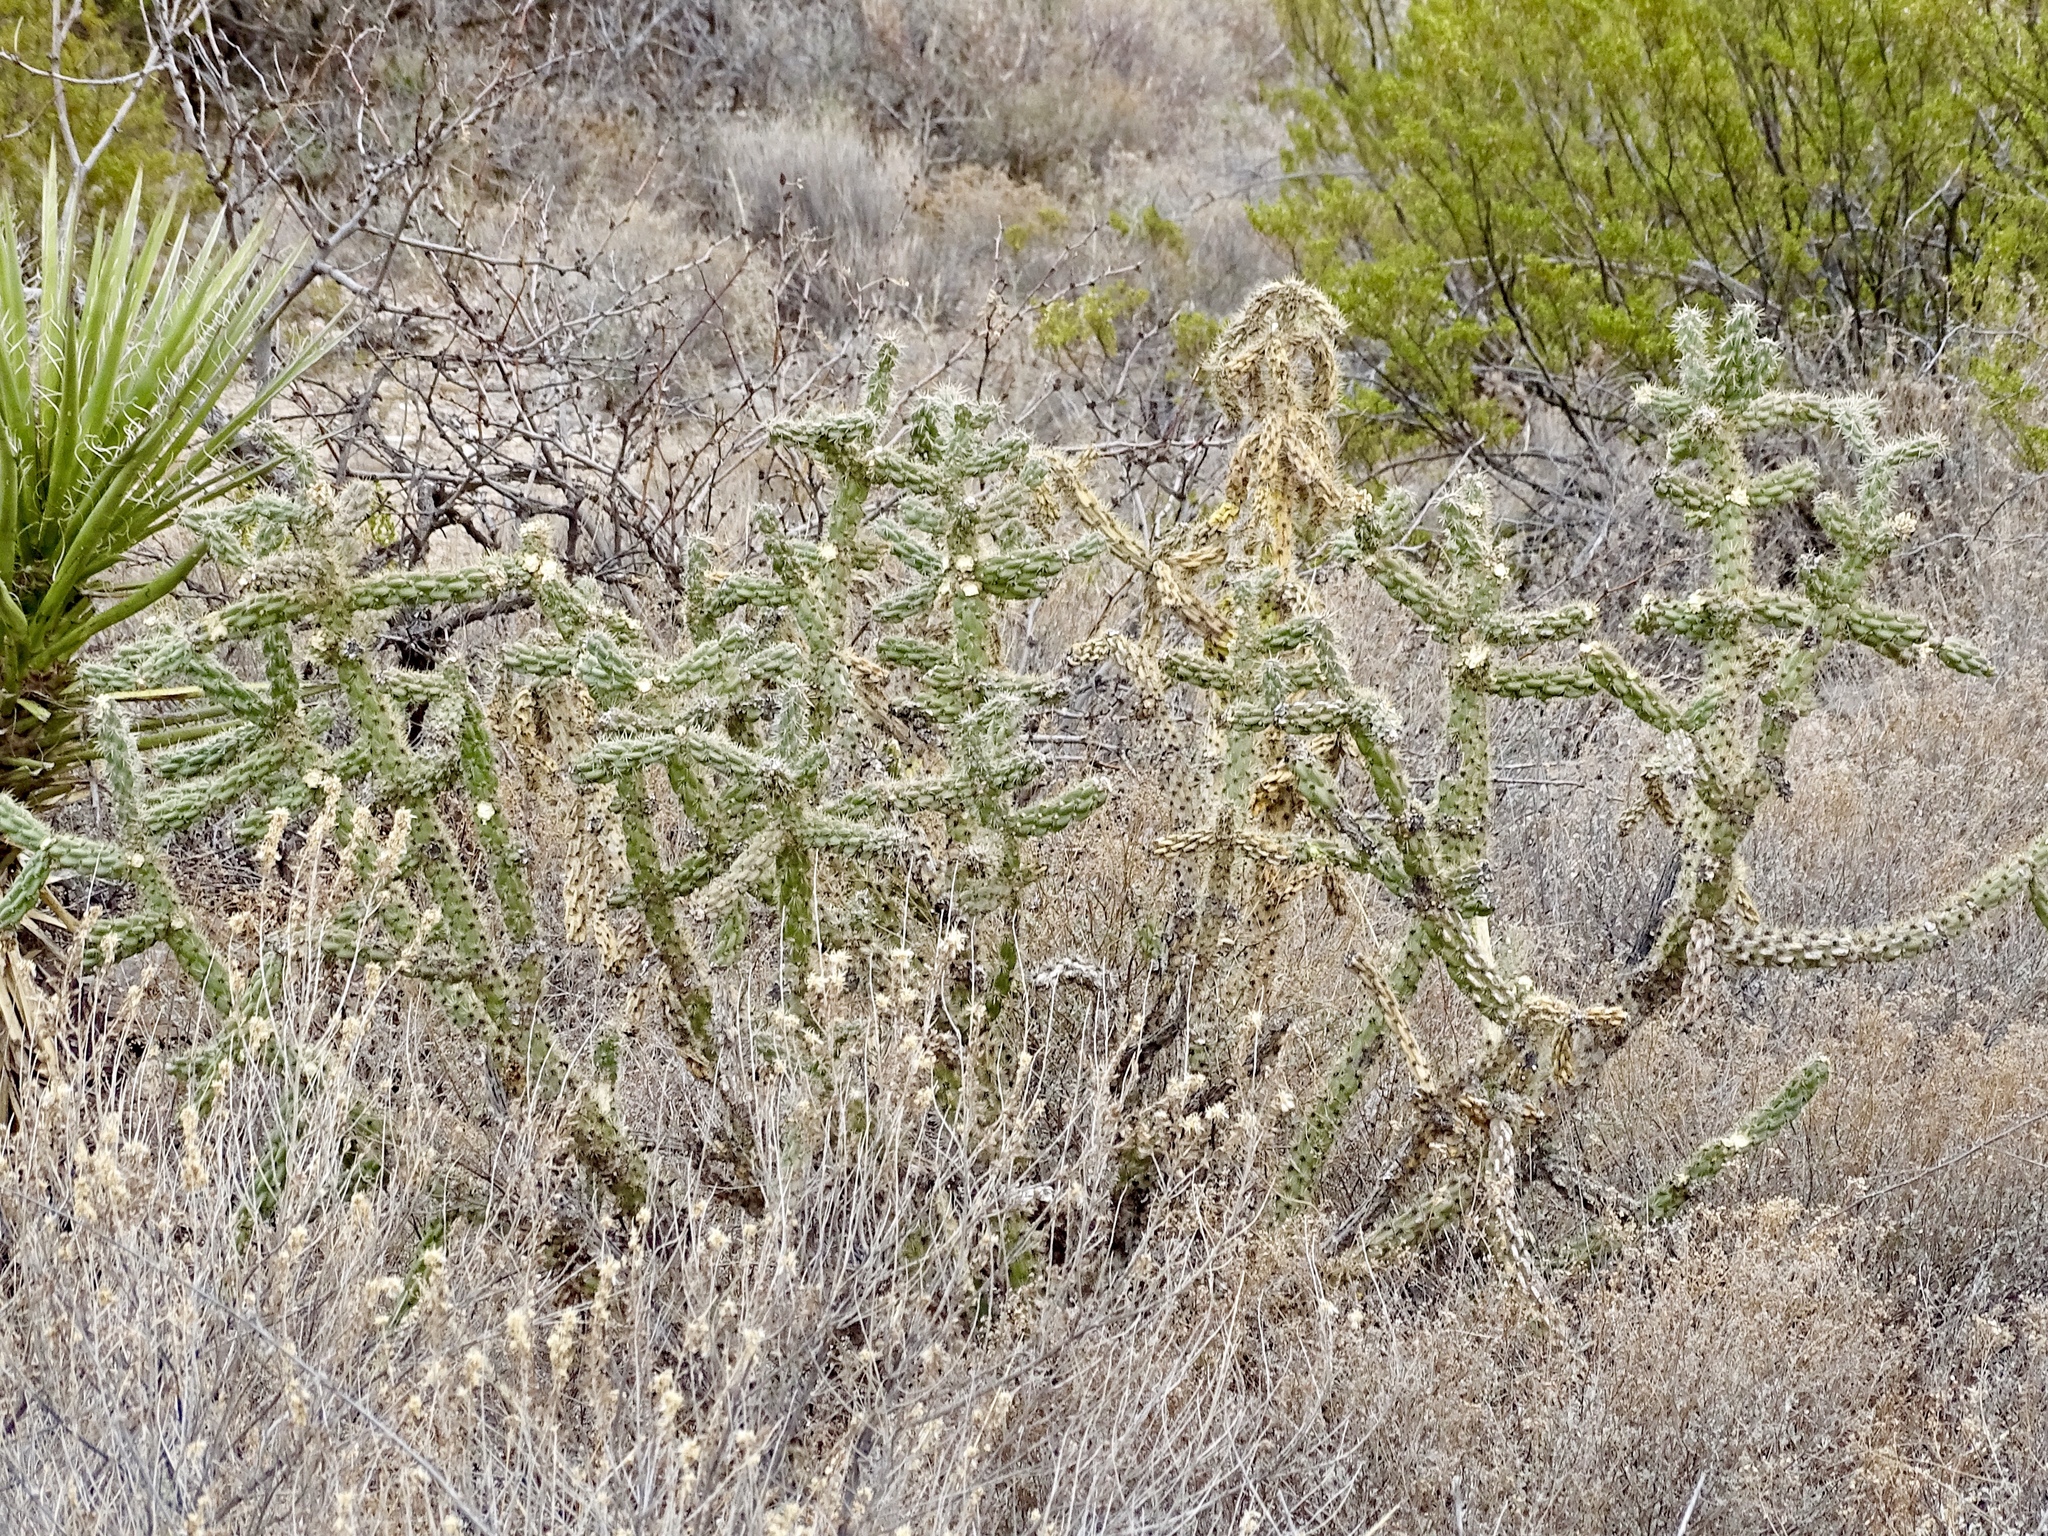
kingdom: Plantae
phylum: Tracheophyta
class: Magnoliopsida
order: Caryophyllales
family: Cactaceae
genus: Cylindropuntia
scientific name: Cylindropuntia imbricata
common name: Candelabrum cactus
